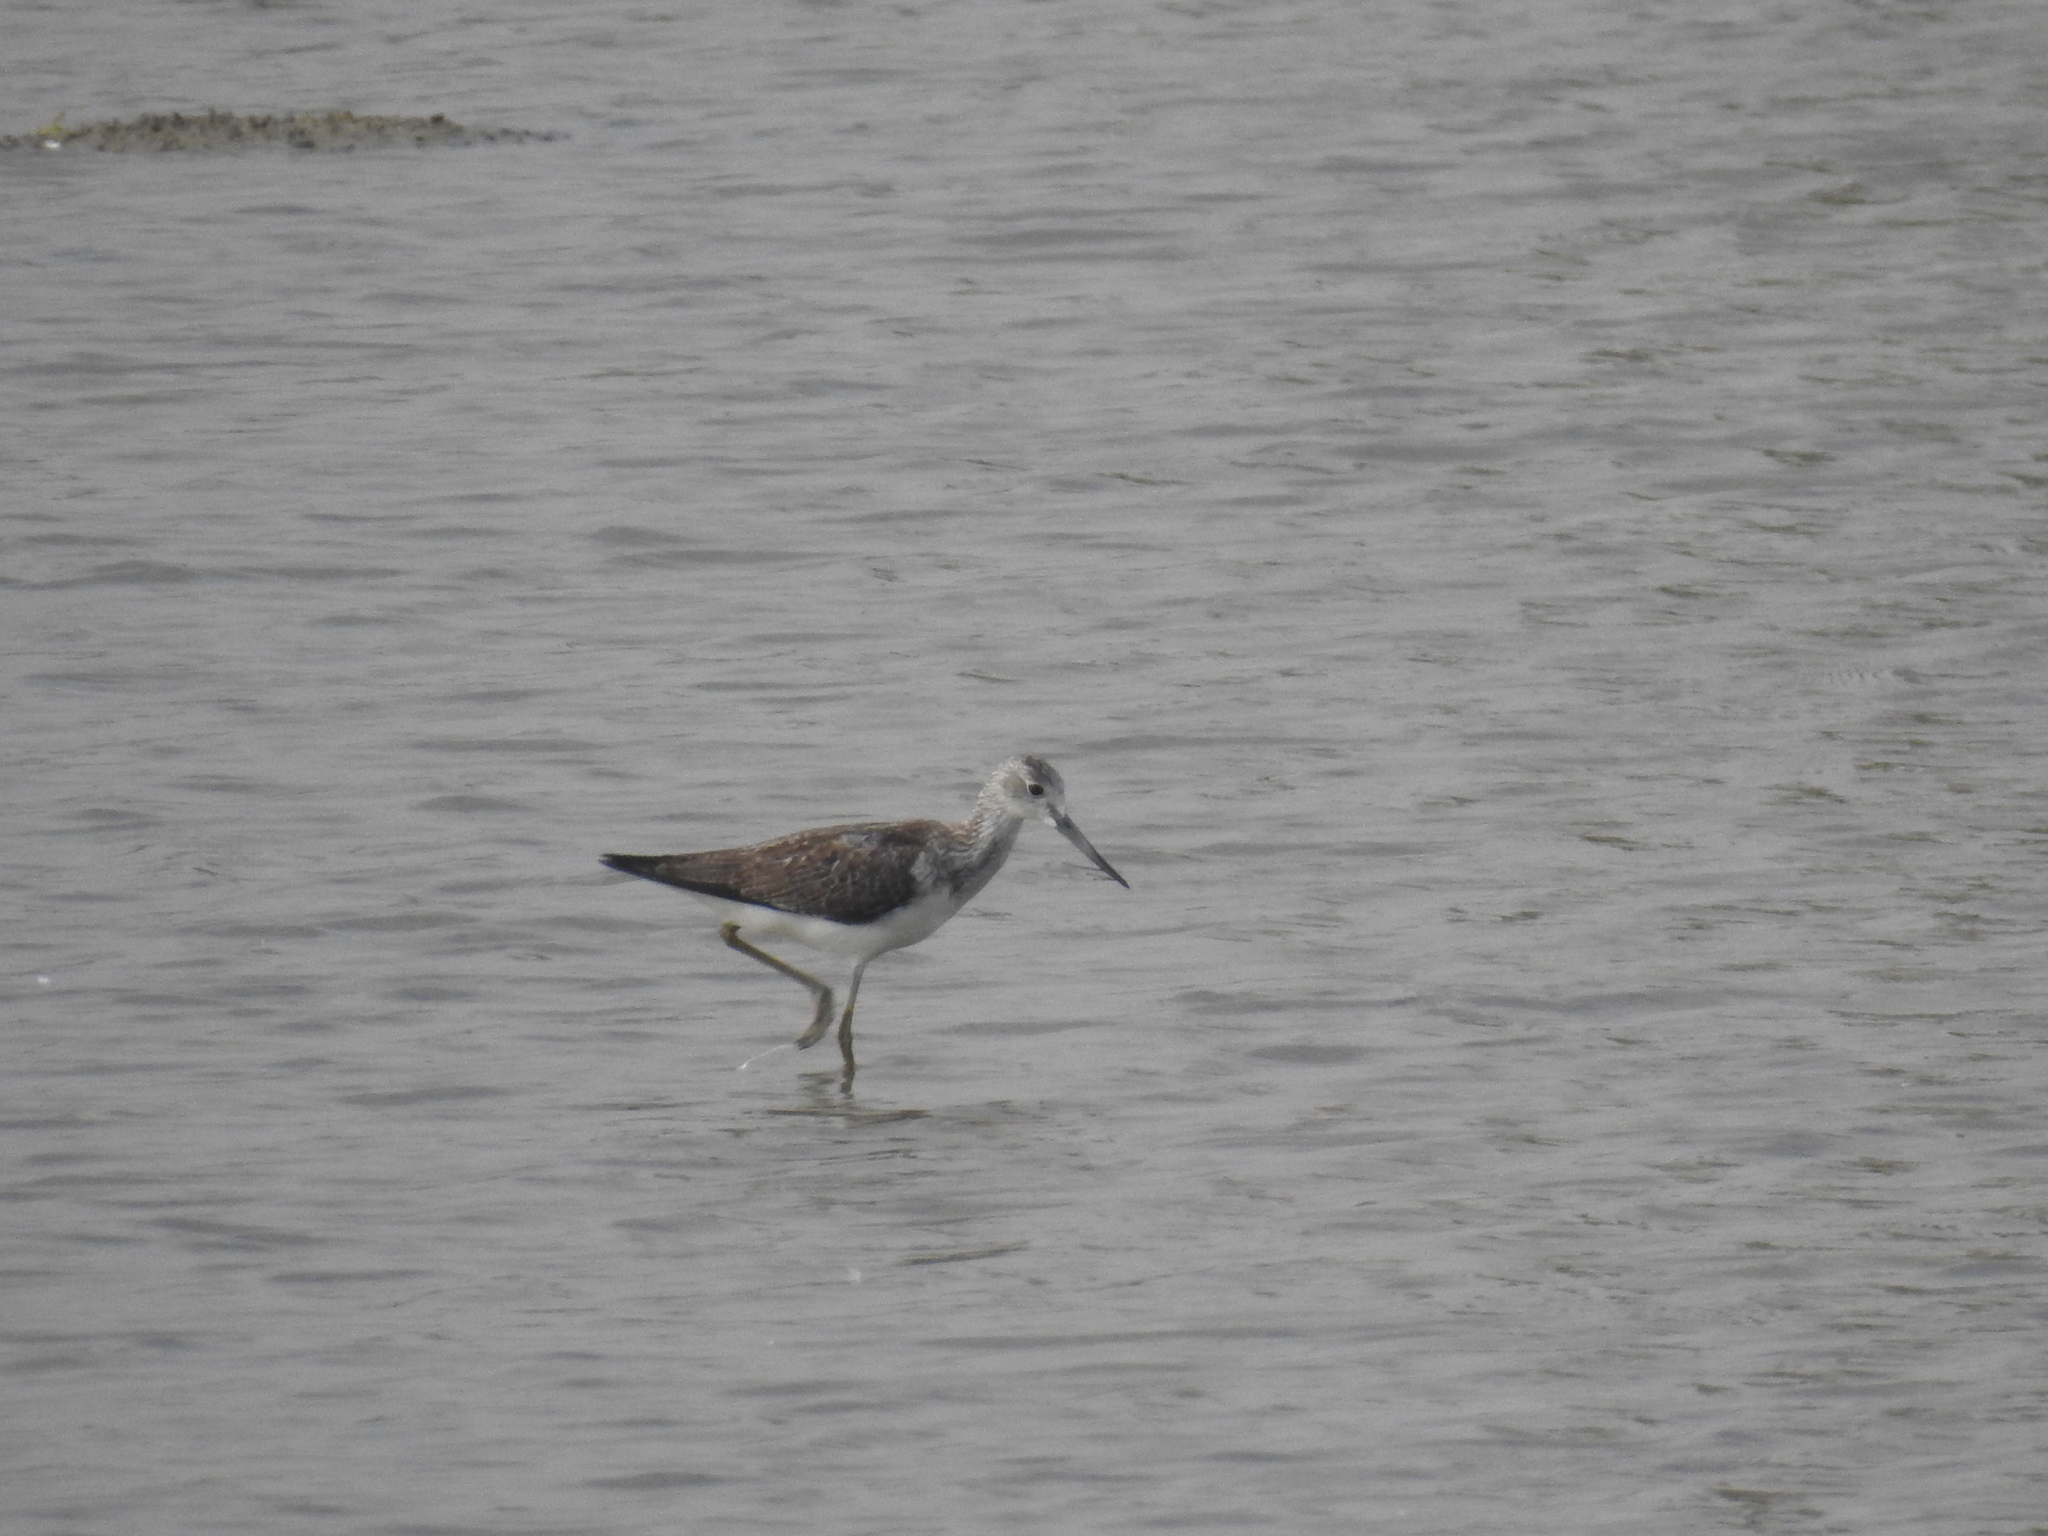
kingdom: Animalia
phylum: Chordata
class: Aves
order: Charadriiformes
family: Scolopacidae
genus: Tringa
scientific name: Tringa nebularia
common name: Common greenshank
